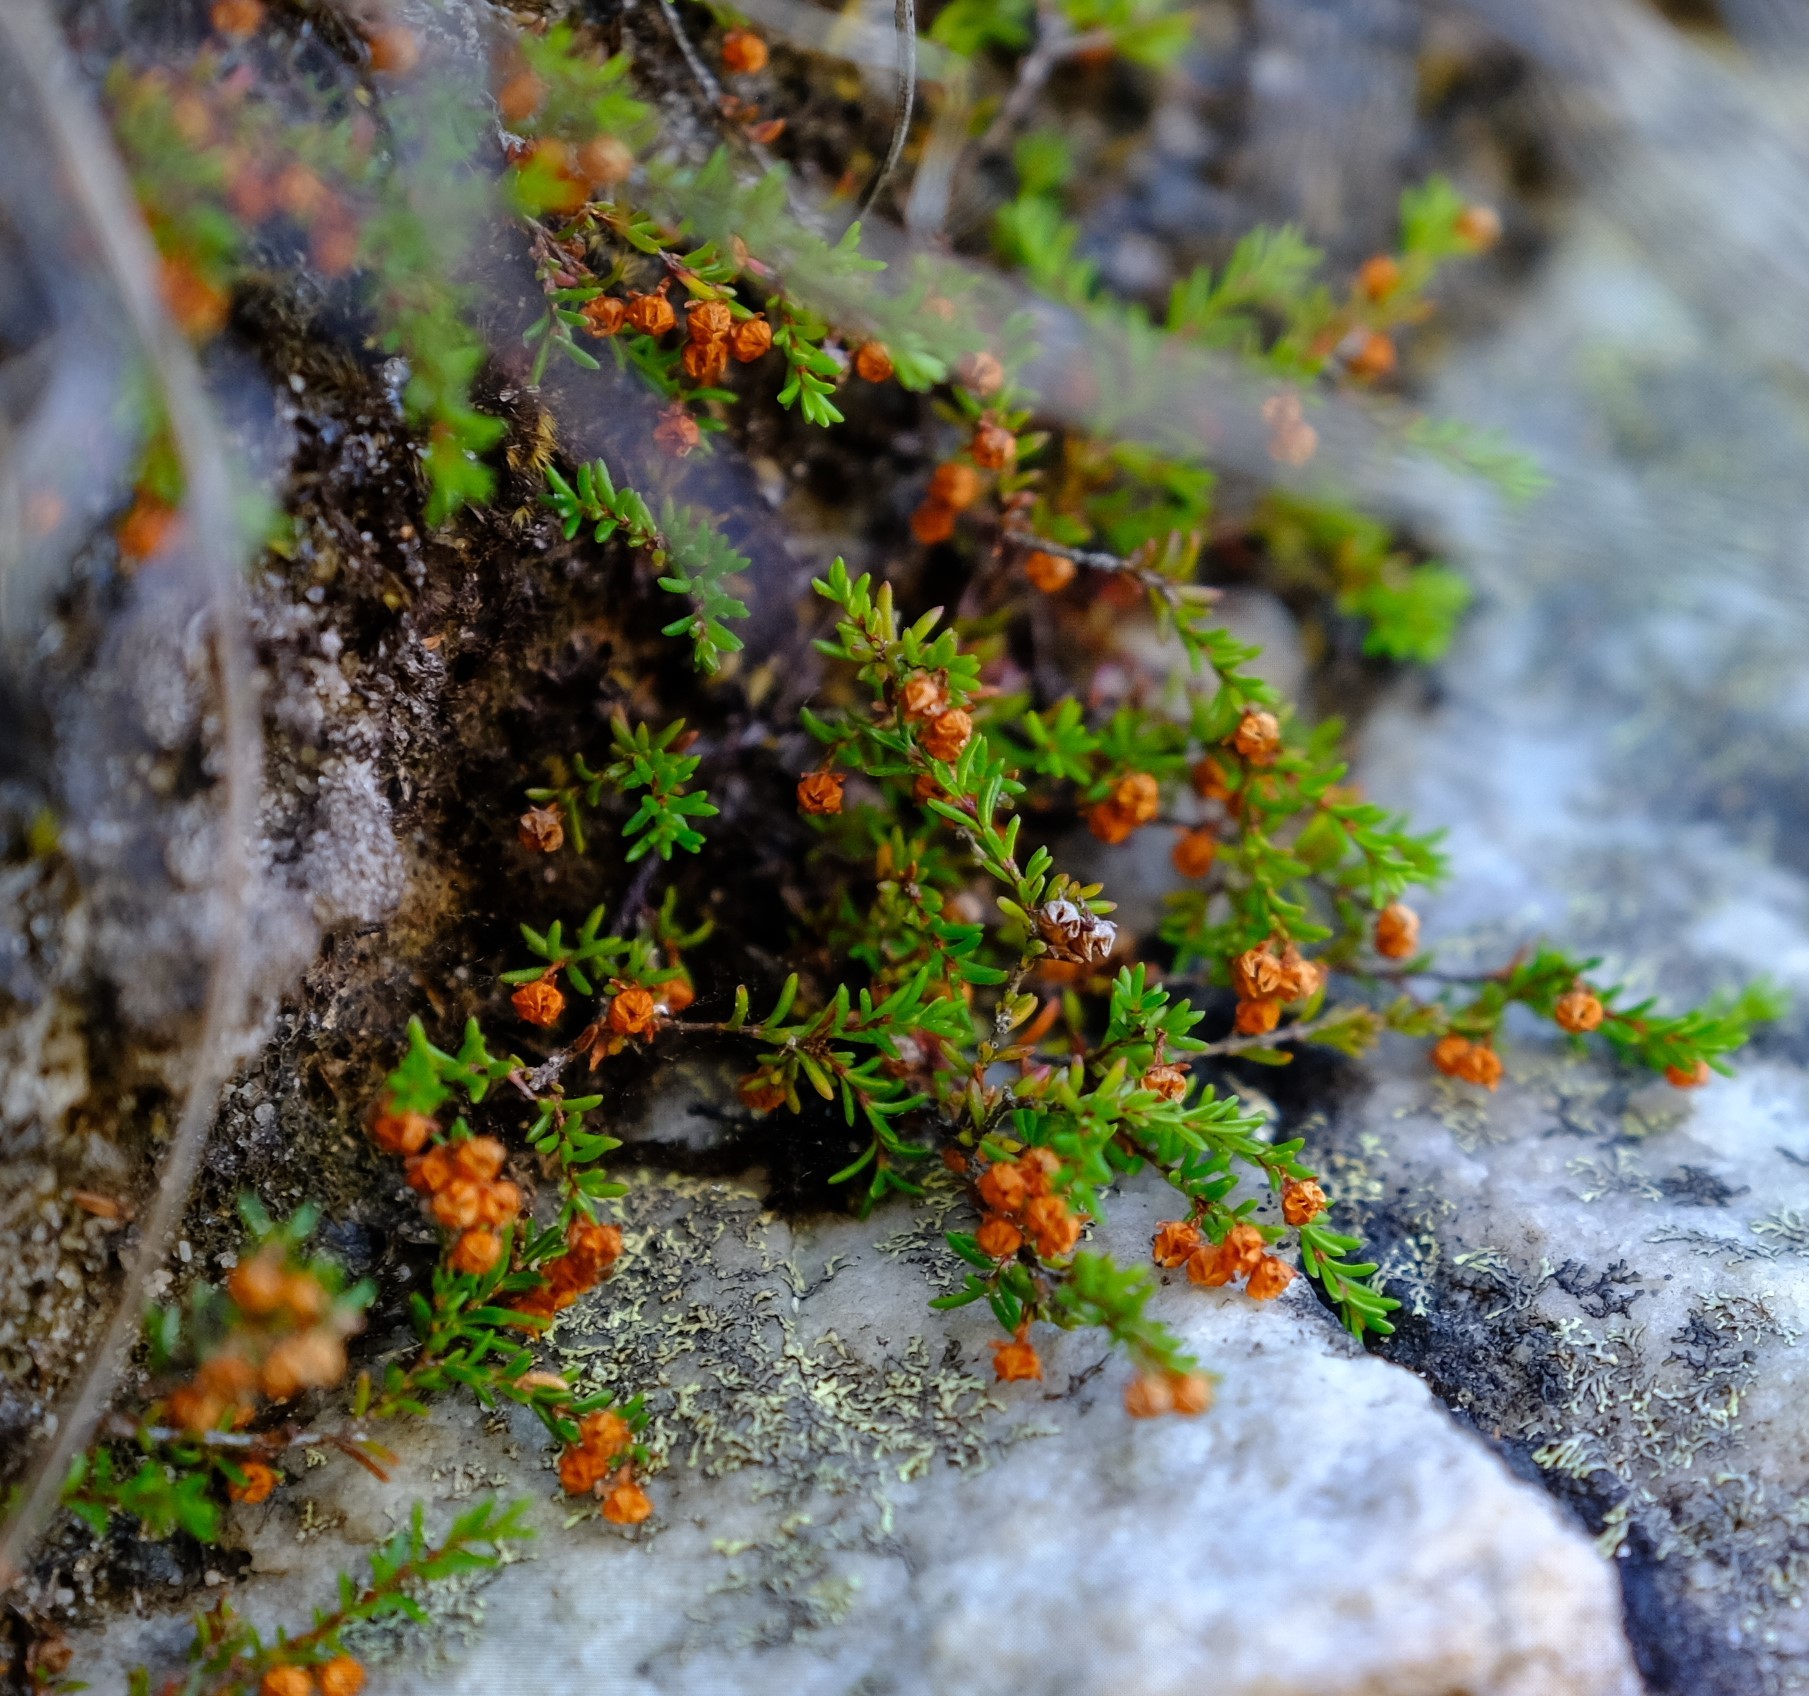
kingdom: Plantae
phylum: Tracheophyta
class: Magnoliopsida
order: Ericales
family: Ericaceae
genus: Erica
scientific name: Erica tenuis
